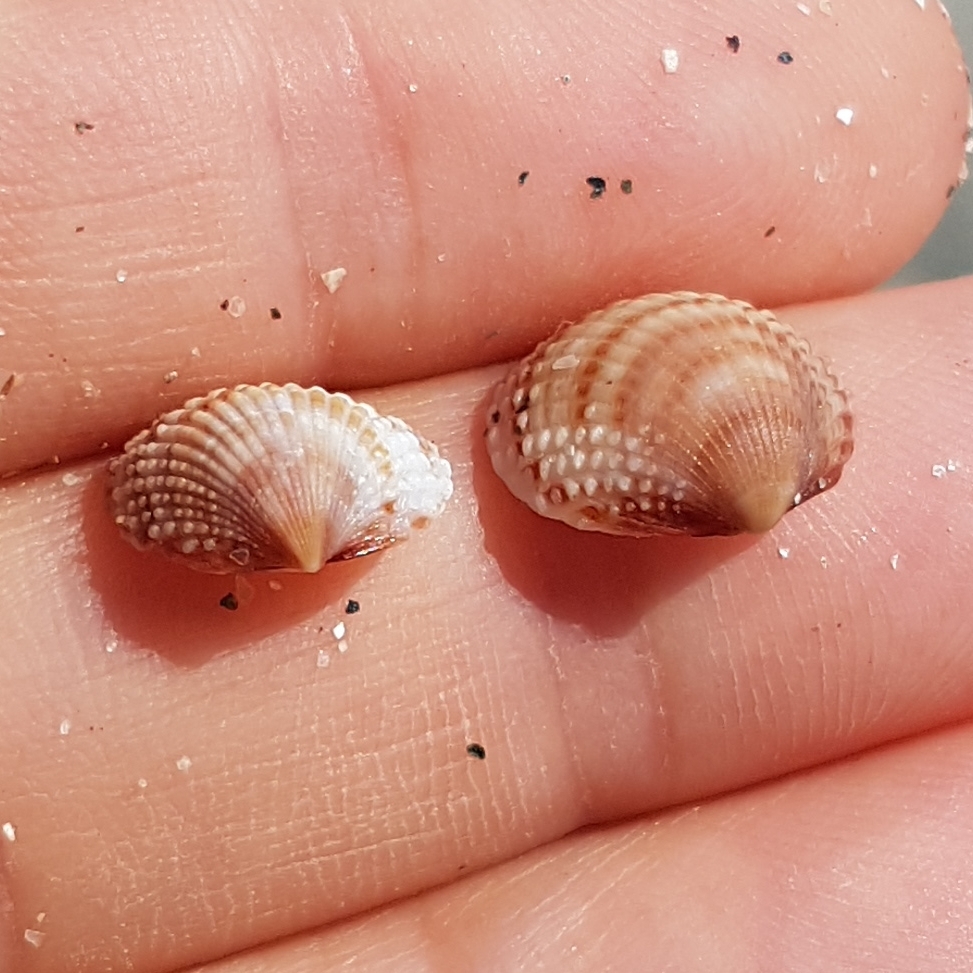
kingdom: Animalia
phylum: Mollusca
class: Bivalvia
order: Cardiida
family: Cardiidae
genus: Papillicardium
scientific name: Papillicardium papillosum
